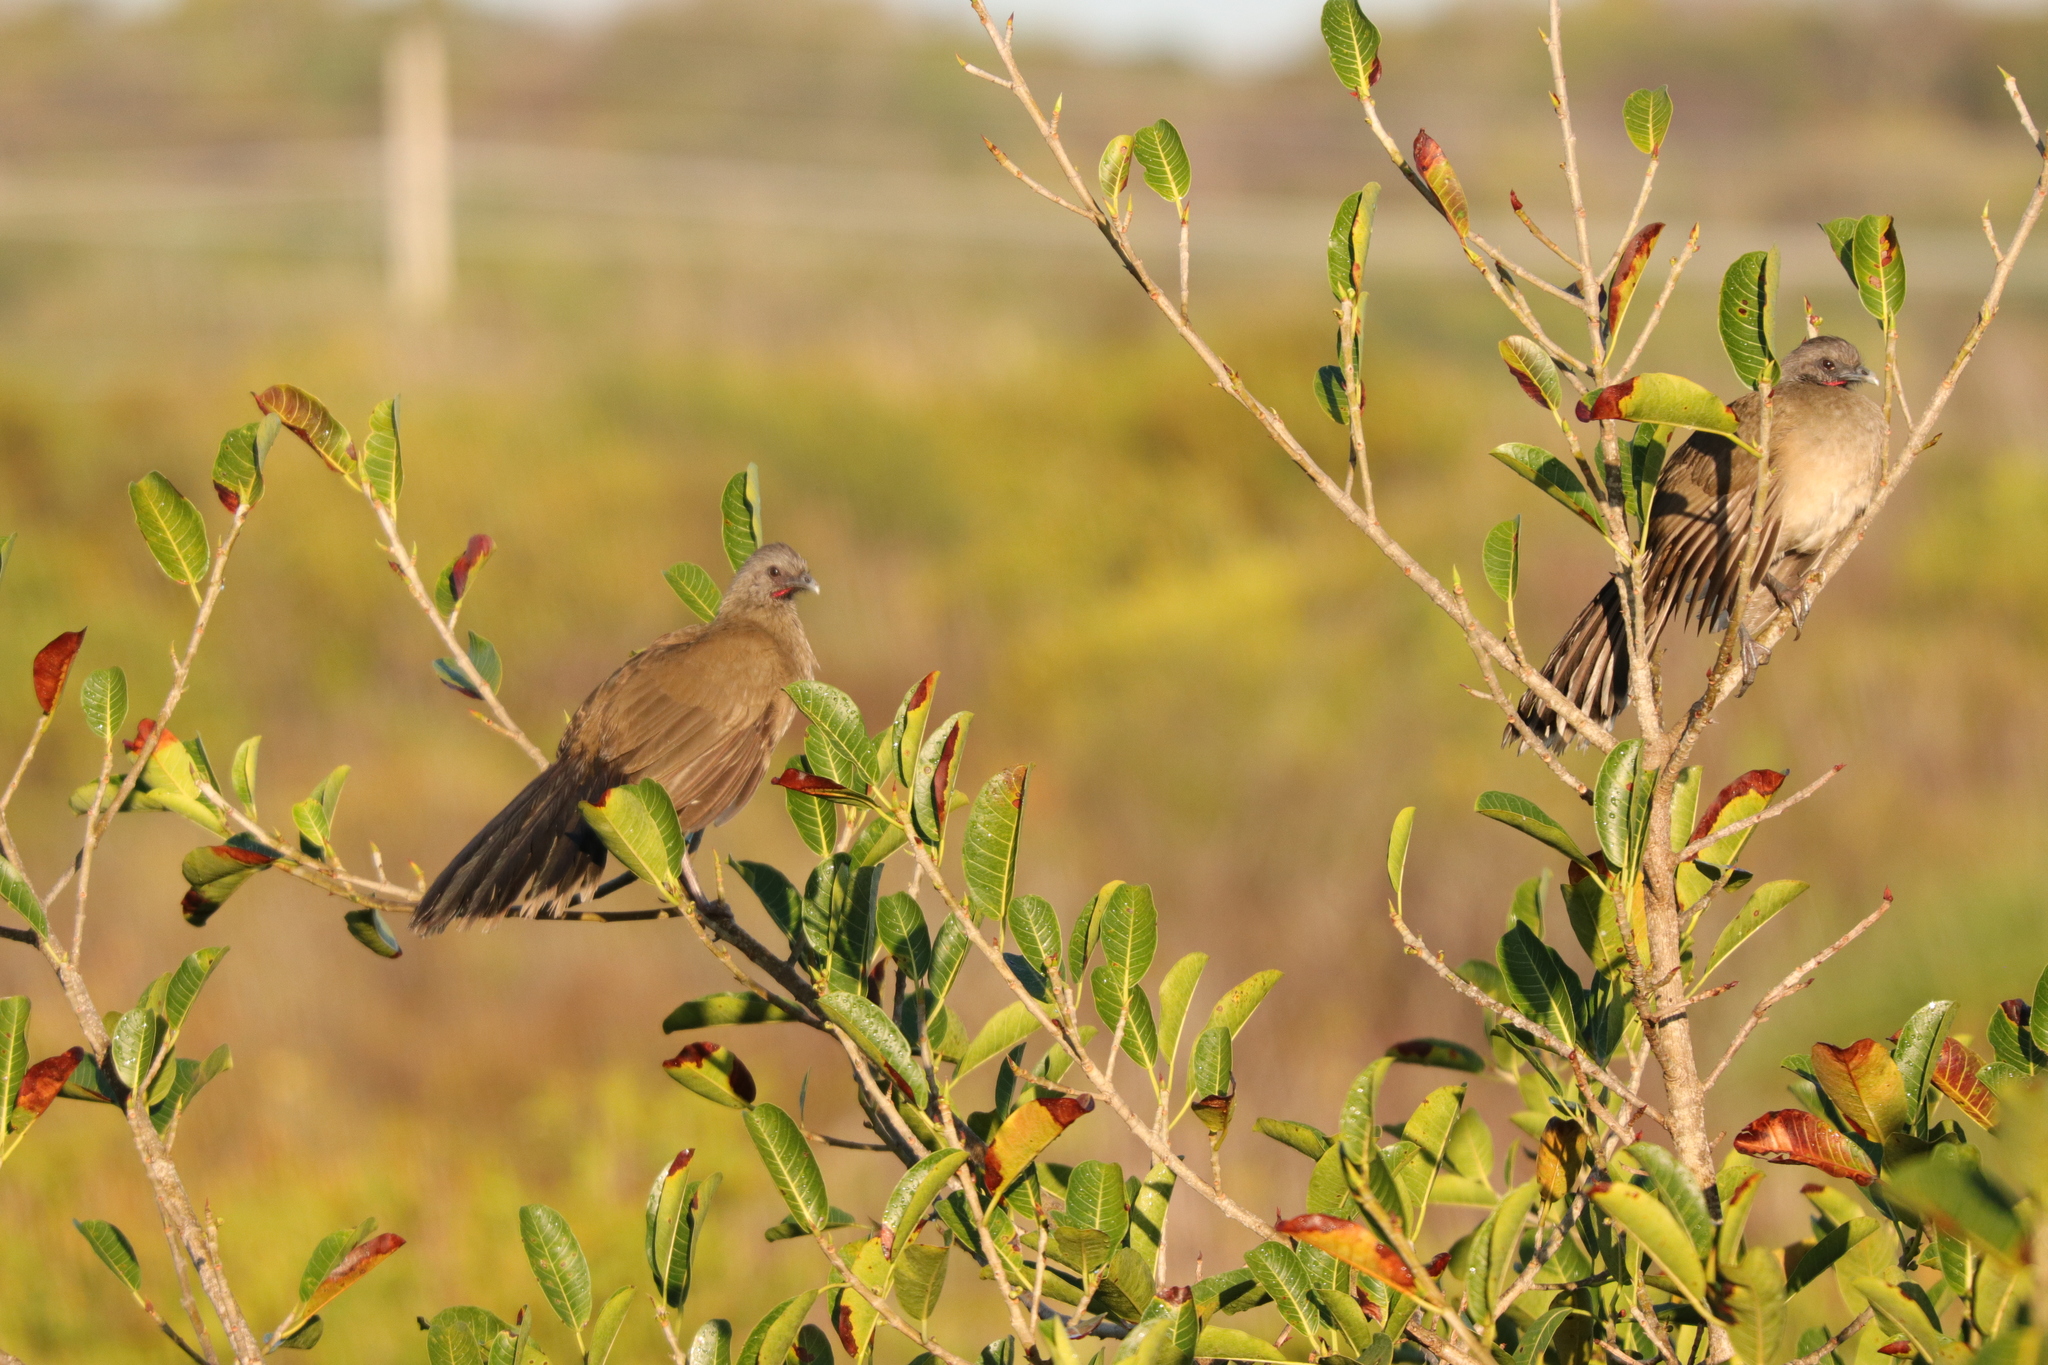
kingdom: Animalia
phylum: Chordata
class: Aves
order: Galliformes
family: Cracidae
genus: Ortalis
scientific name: Ortalis vetula
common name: Plain chachalaca
